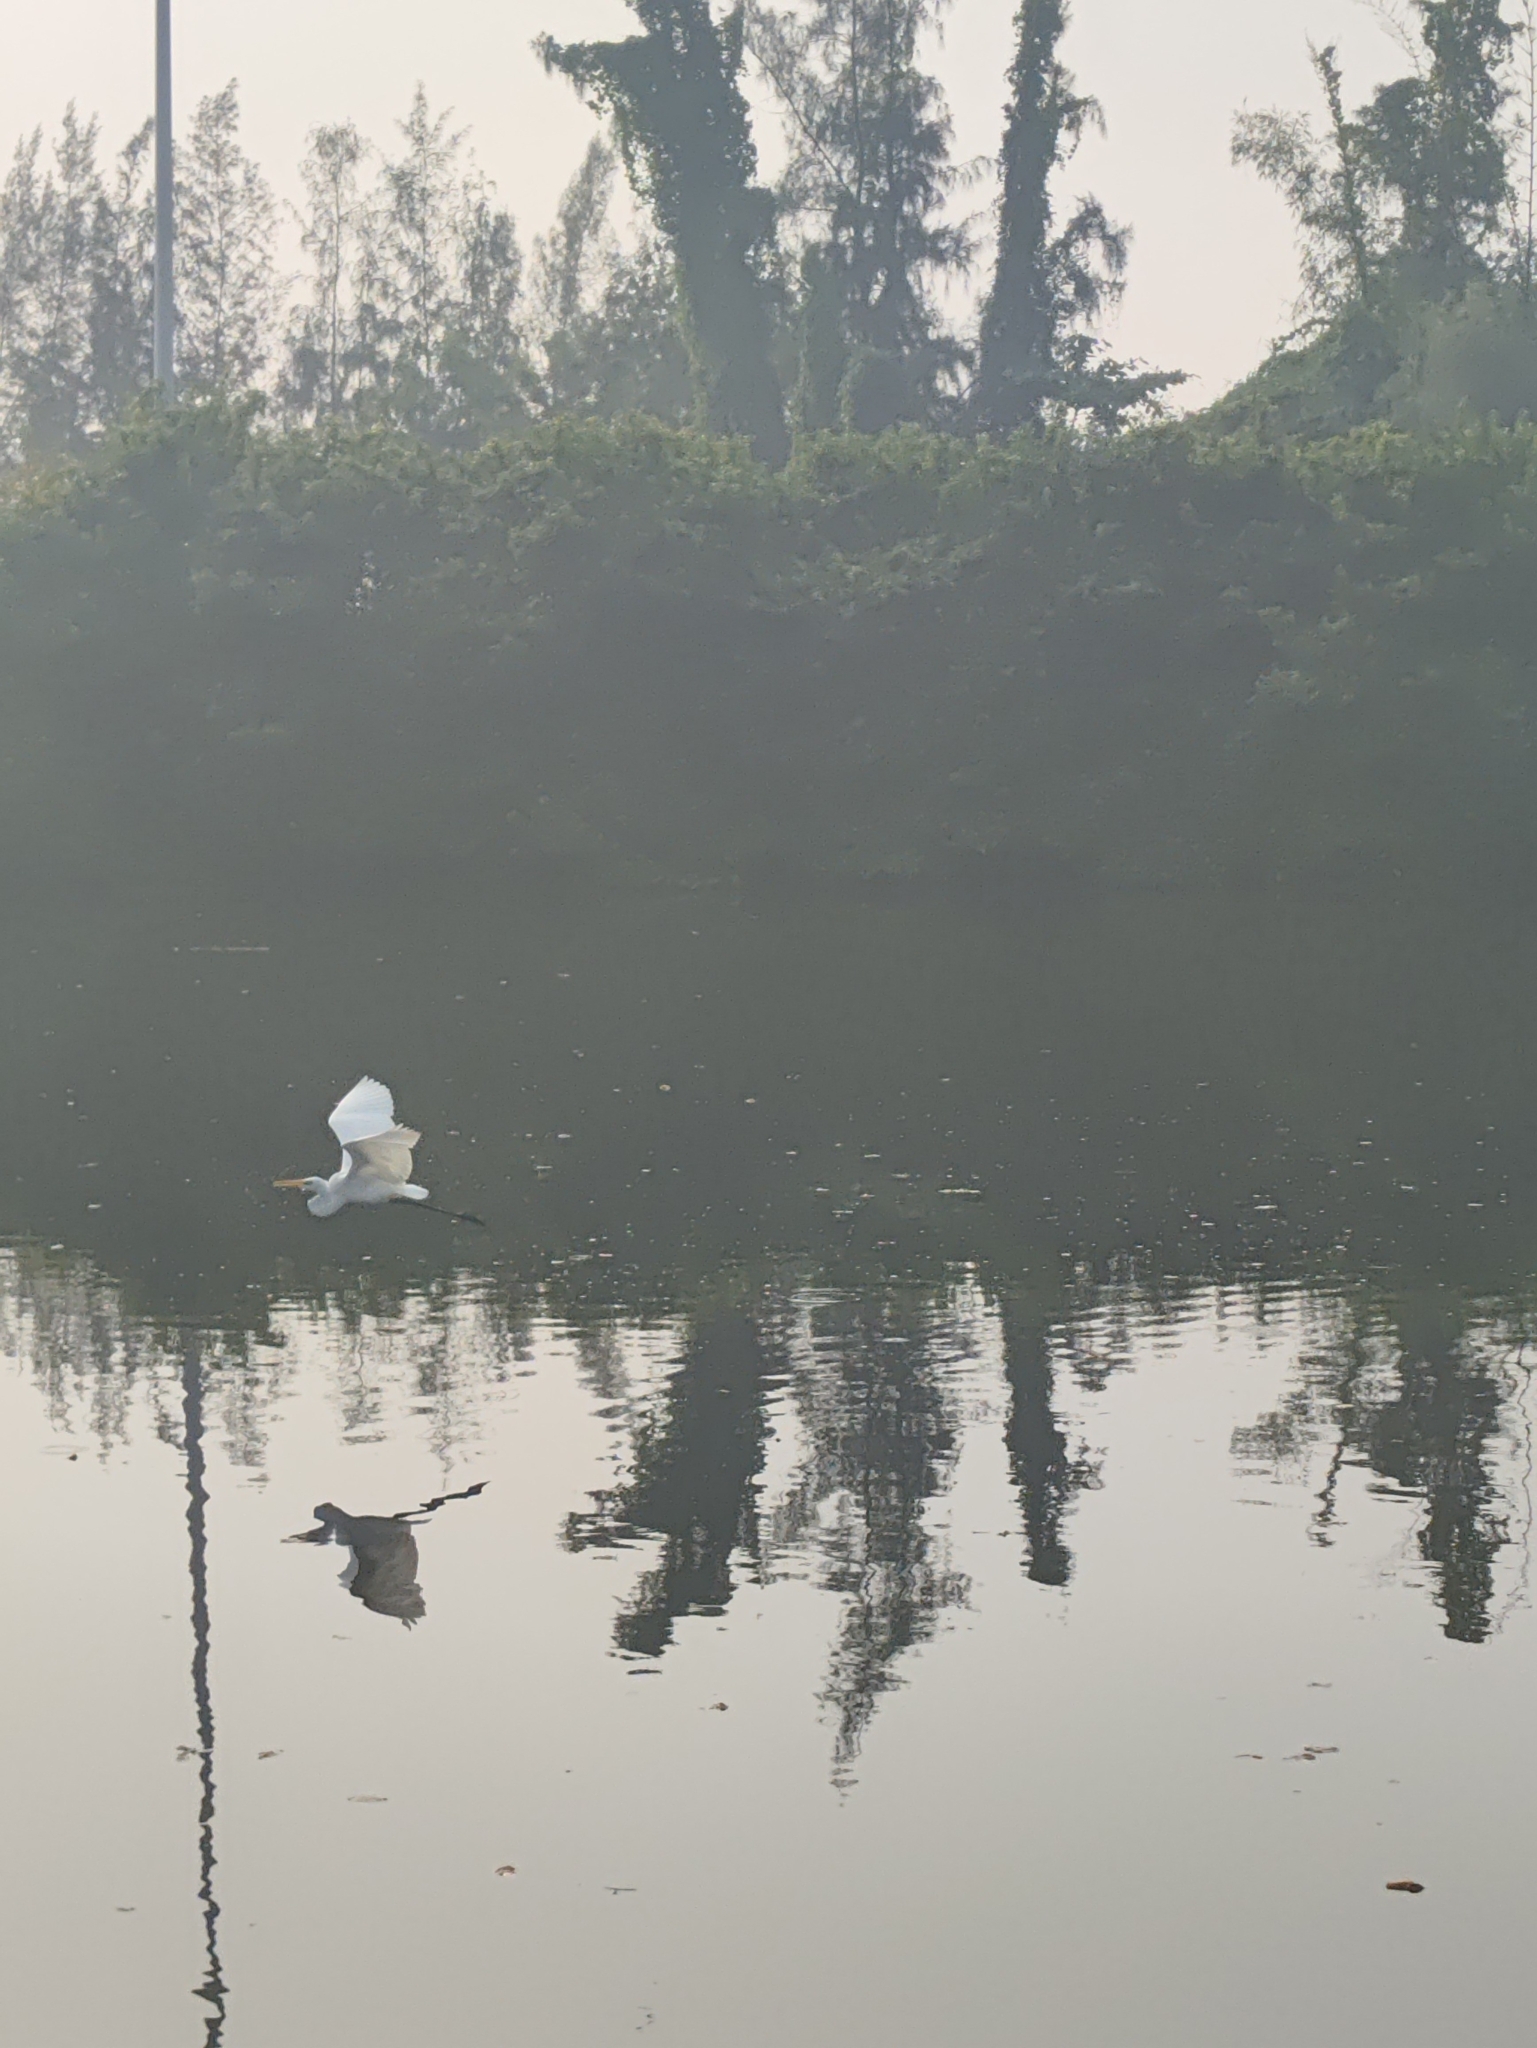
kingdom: Animalia
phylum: Chordata
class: Aves
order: Pelecaniformes
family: Ardeidae
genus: Bubulcus
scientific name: Bubulcus coromandus
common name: Eastern cattle egret
